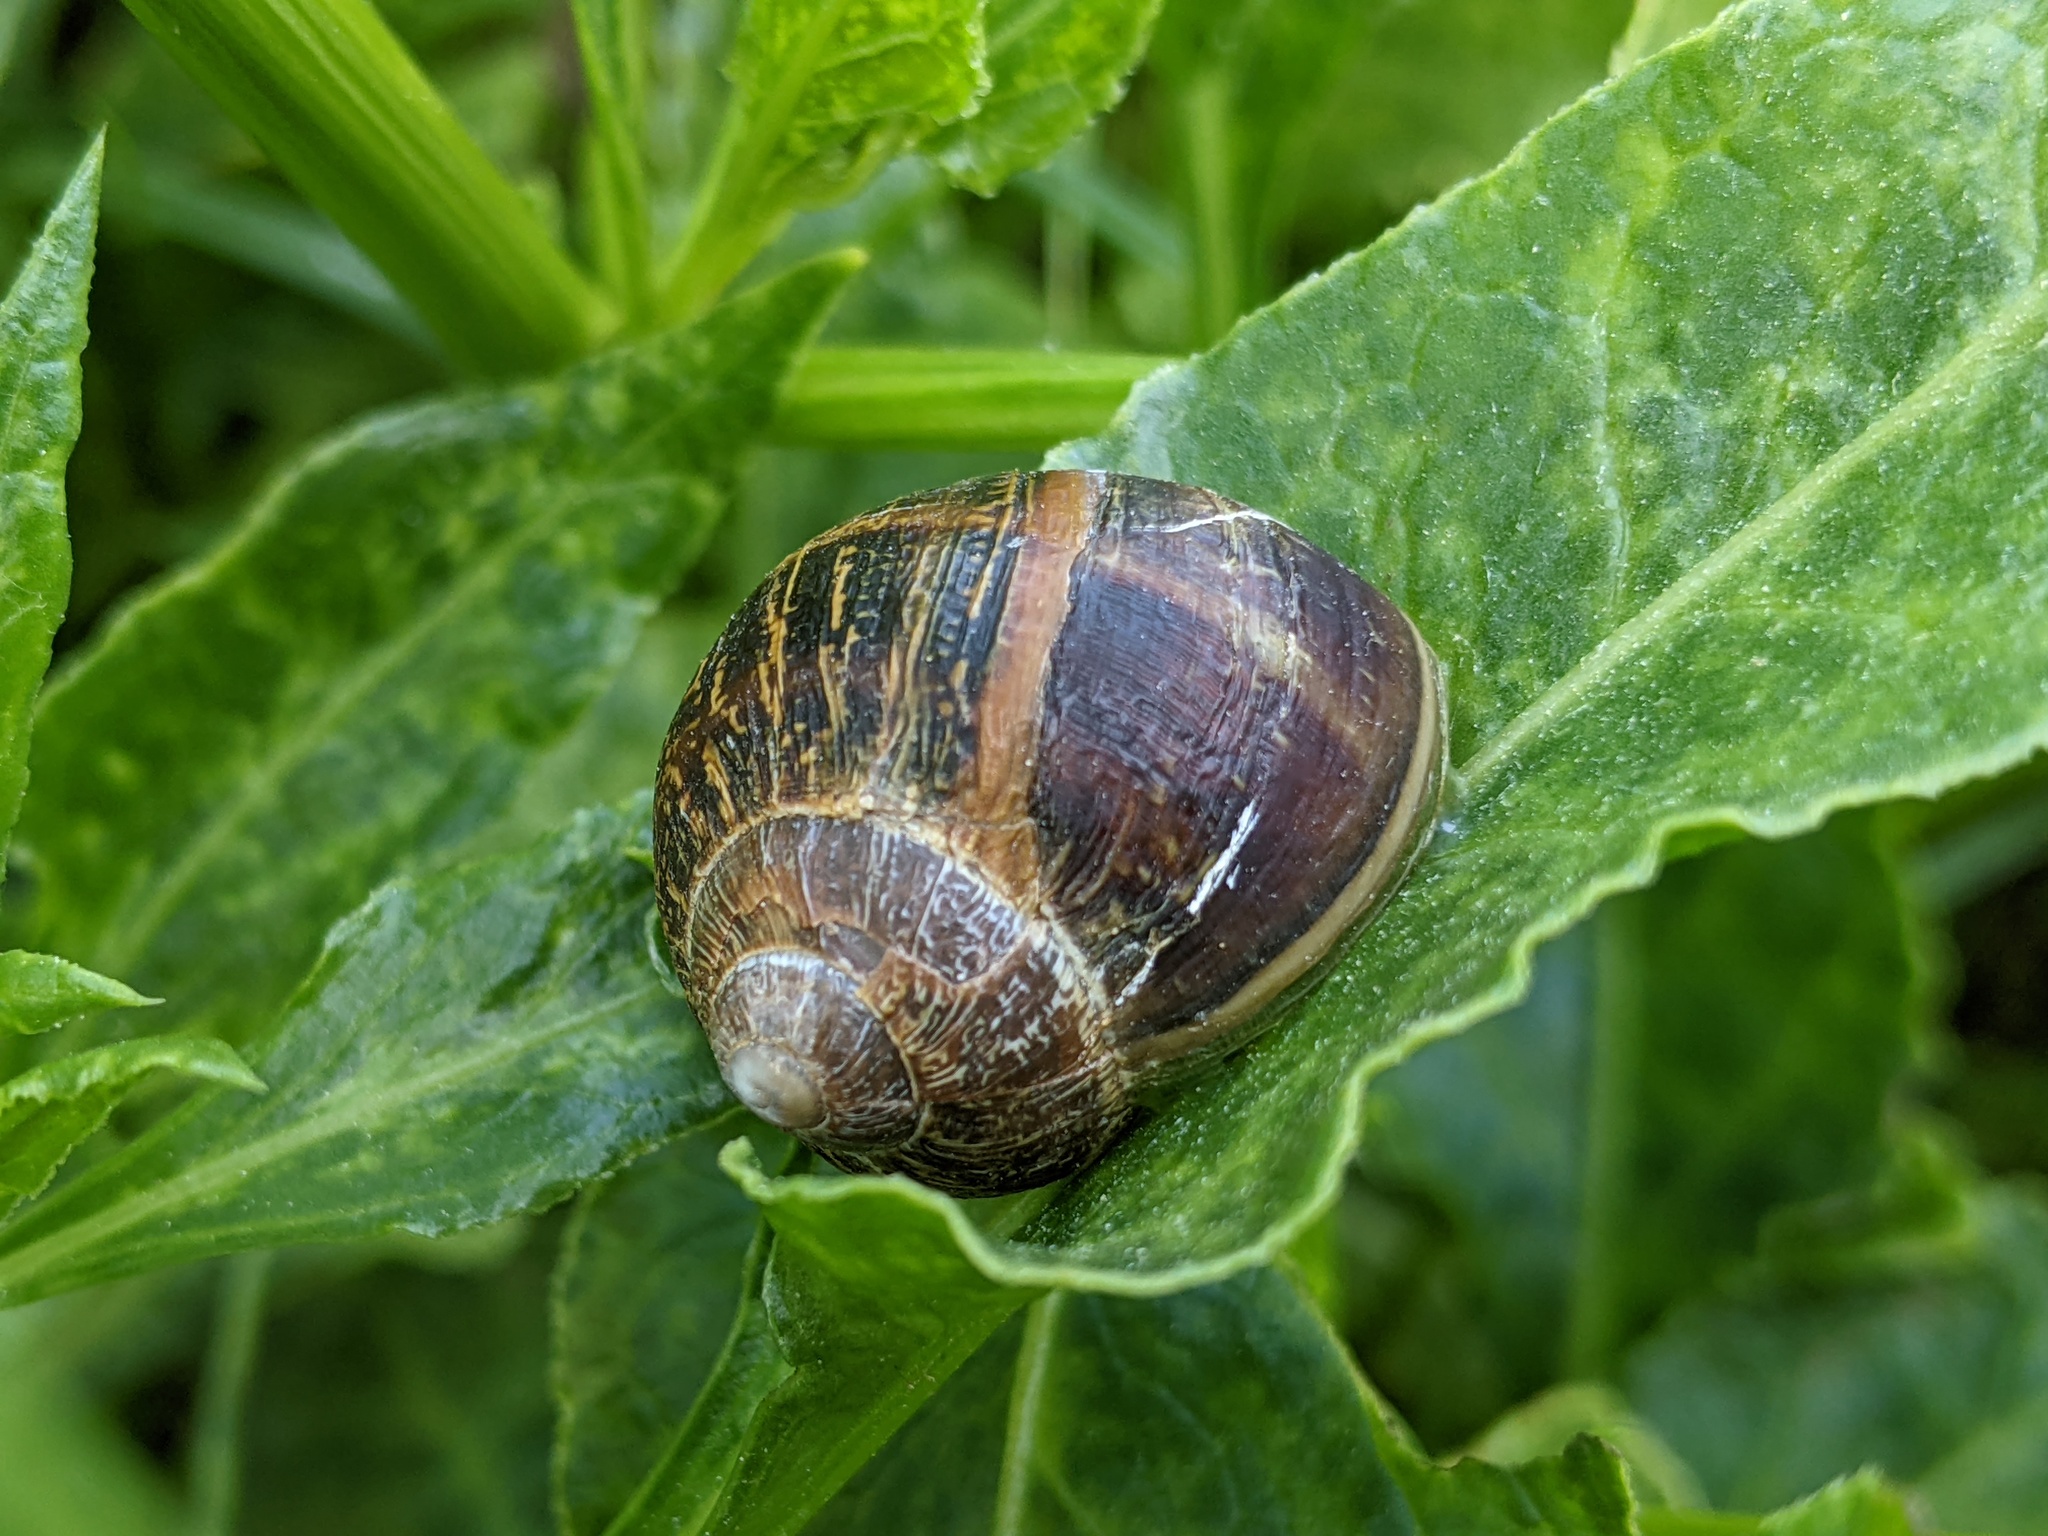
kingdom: Animalia
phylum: Mollusca
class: Gastropoda
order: Stylommatophora
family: Helicidae
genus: Cornu
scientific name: Cornu aspersum
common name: Brown garden snail
